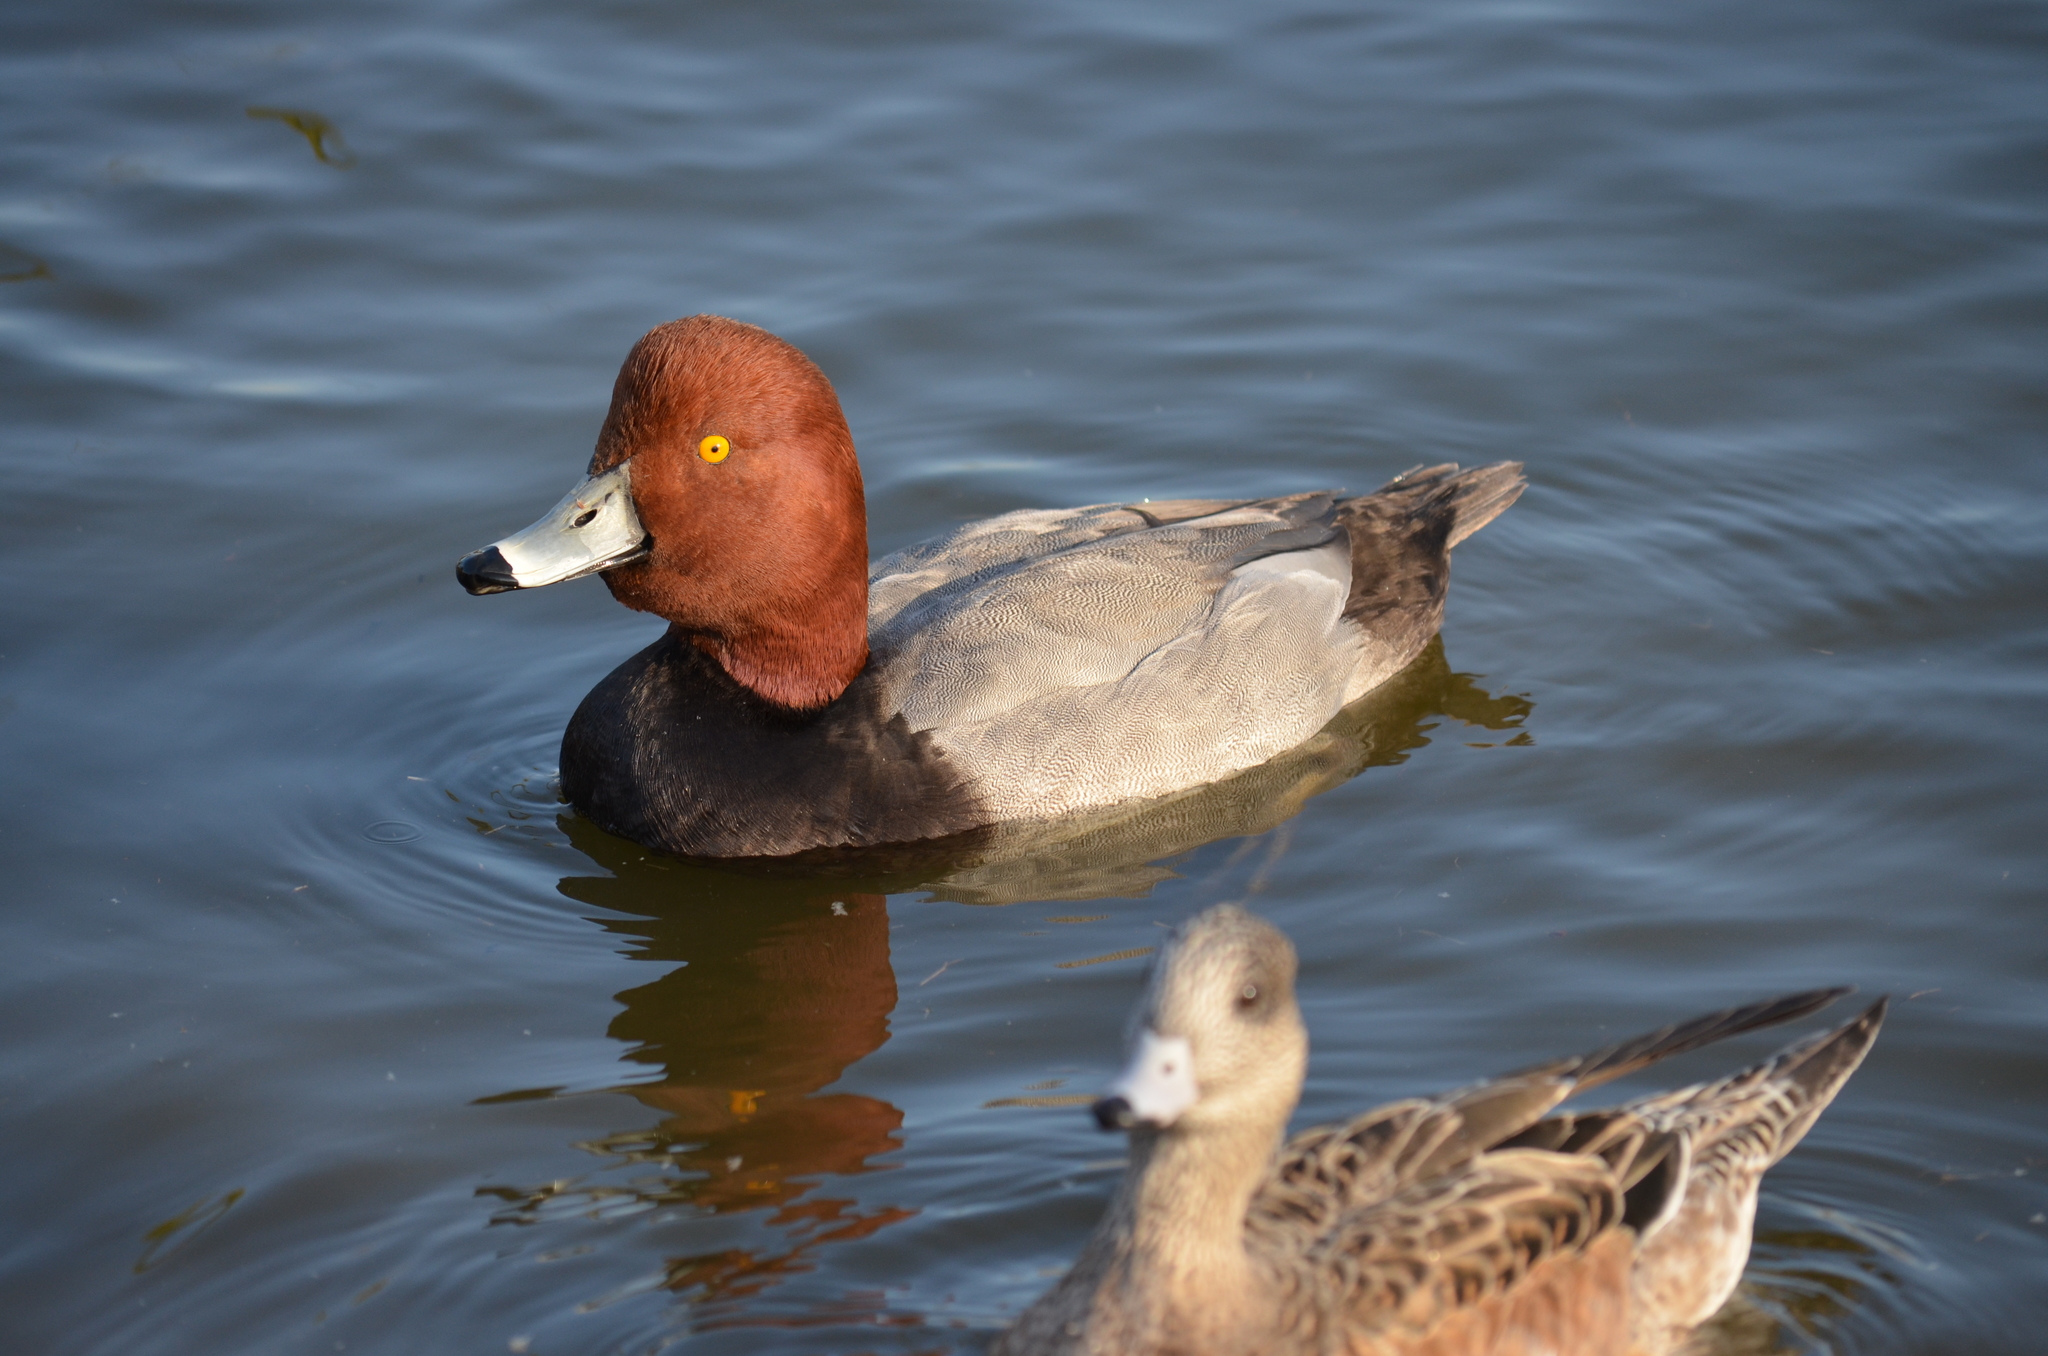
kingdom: Animalia
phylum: Chordata
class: Aves
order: Anseriformes
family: Anatidae
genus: Aythya
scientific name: Aythya americana
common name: Redhead
